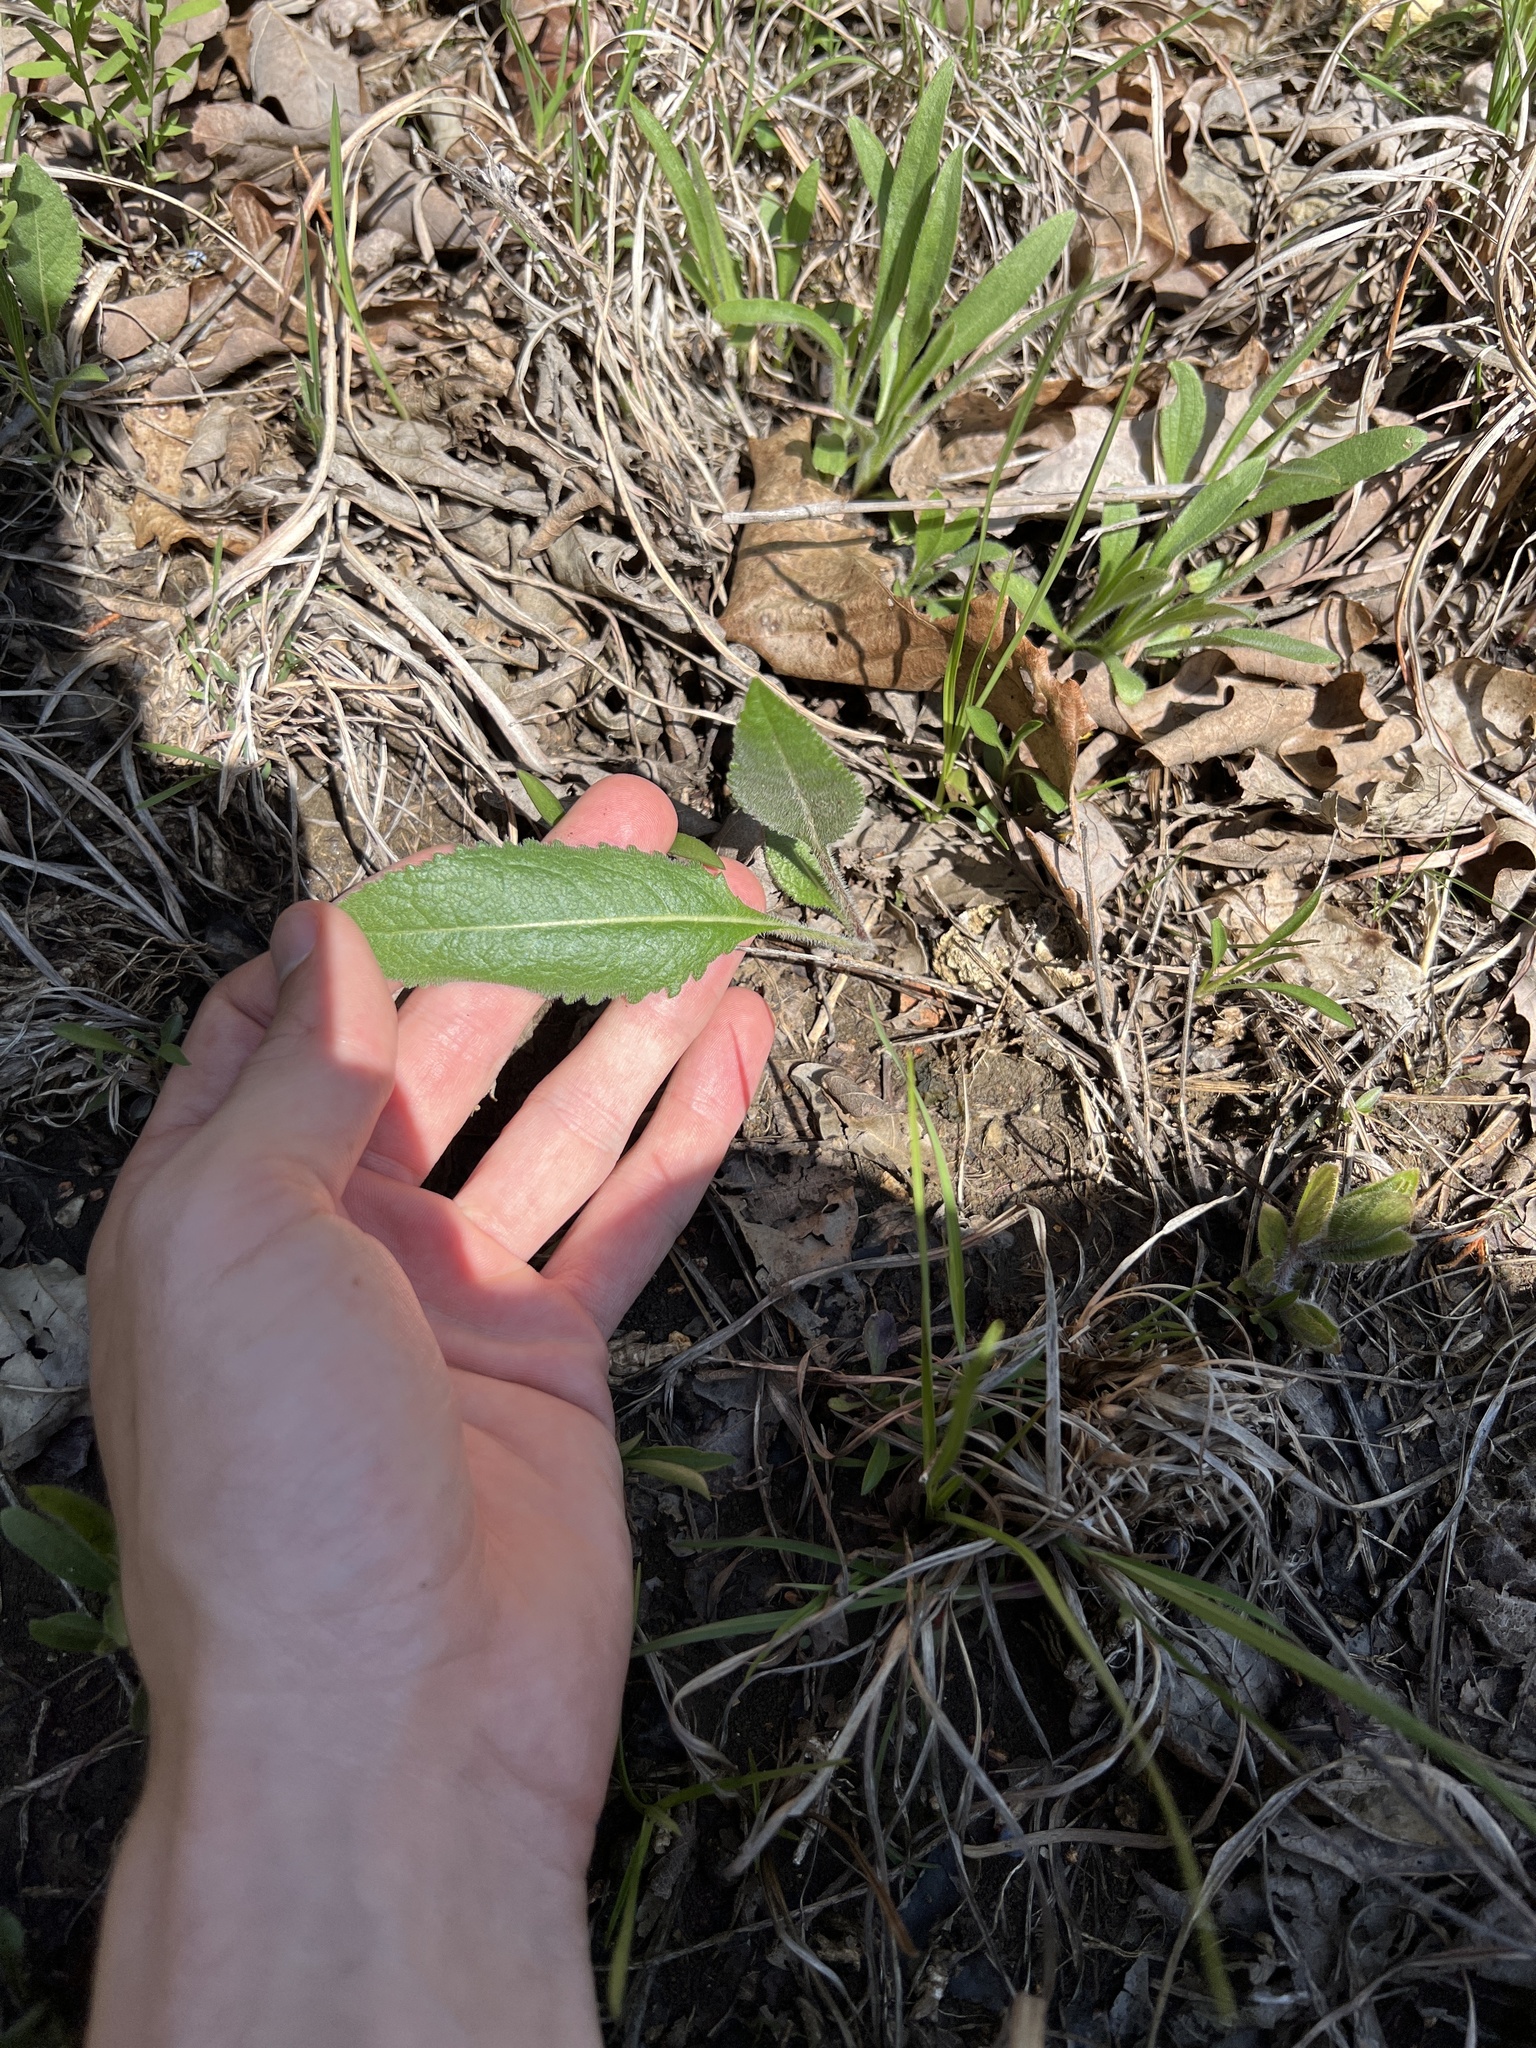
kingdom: Plantae
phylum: Tracheophyta
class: Magnoliopsida
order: Asterales
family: Asteraceae
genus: Parthenium
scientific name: Parthenium hispidum
